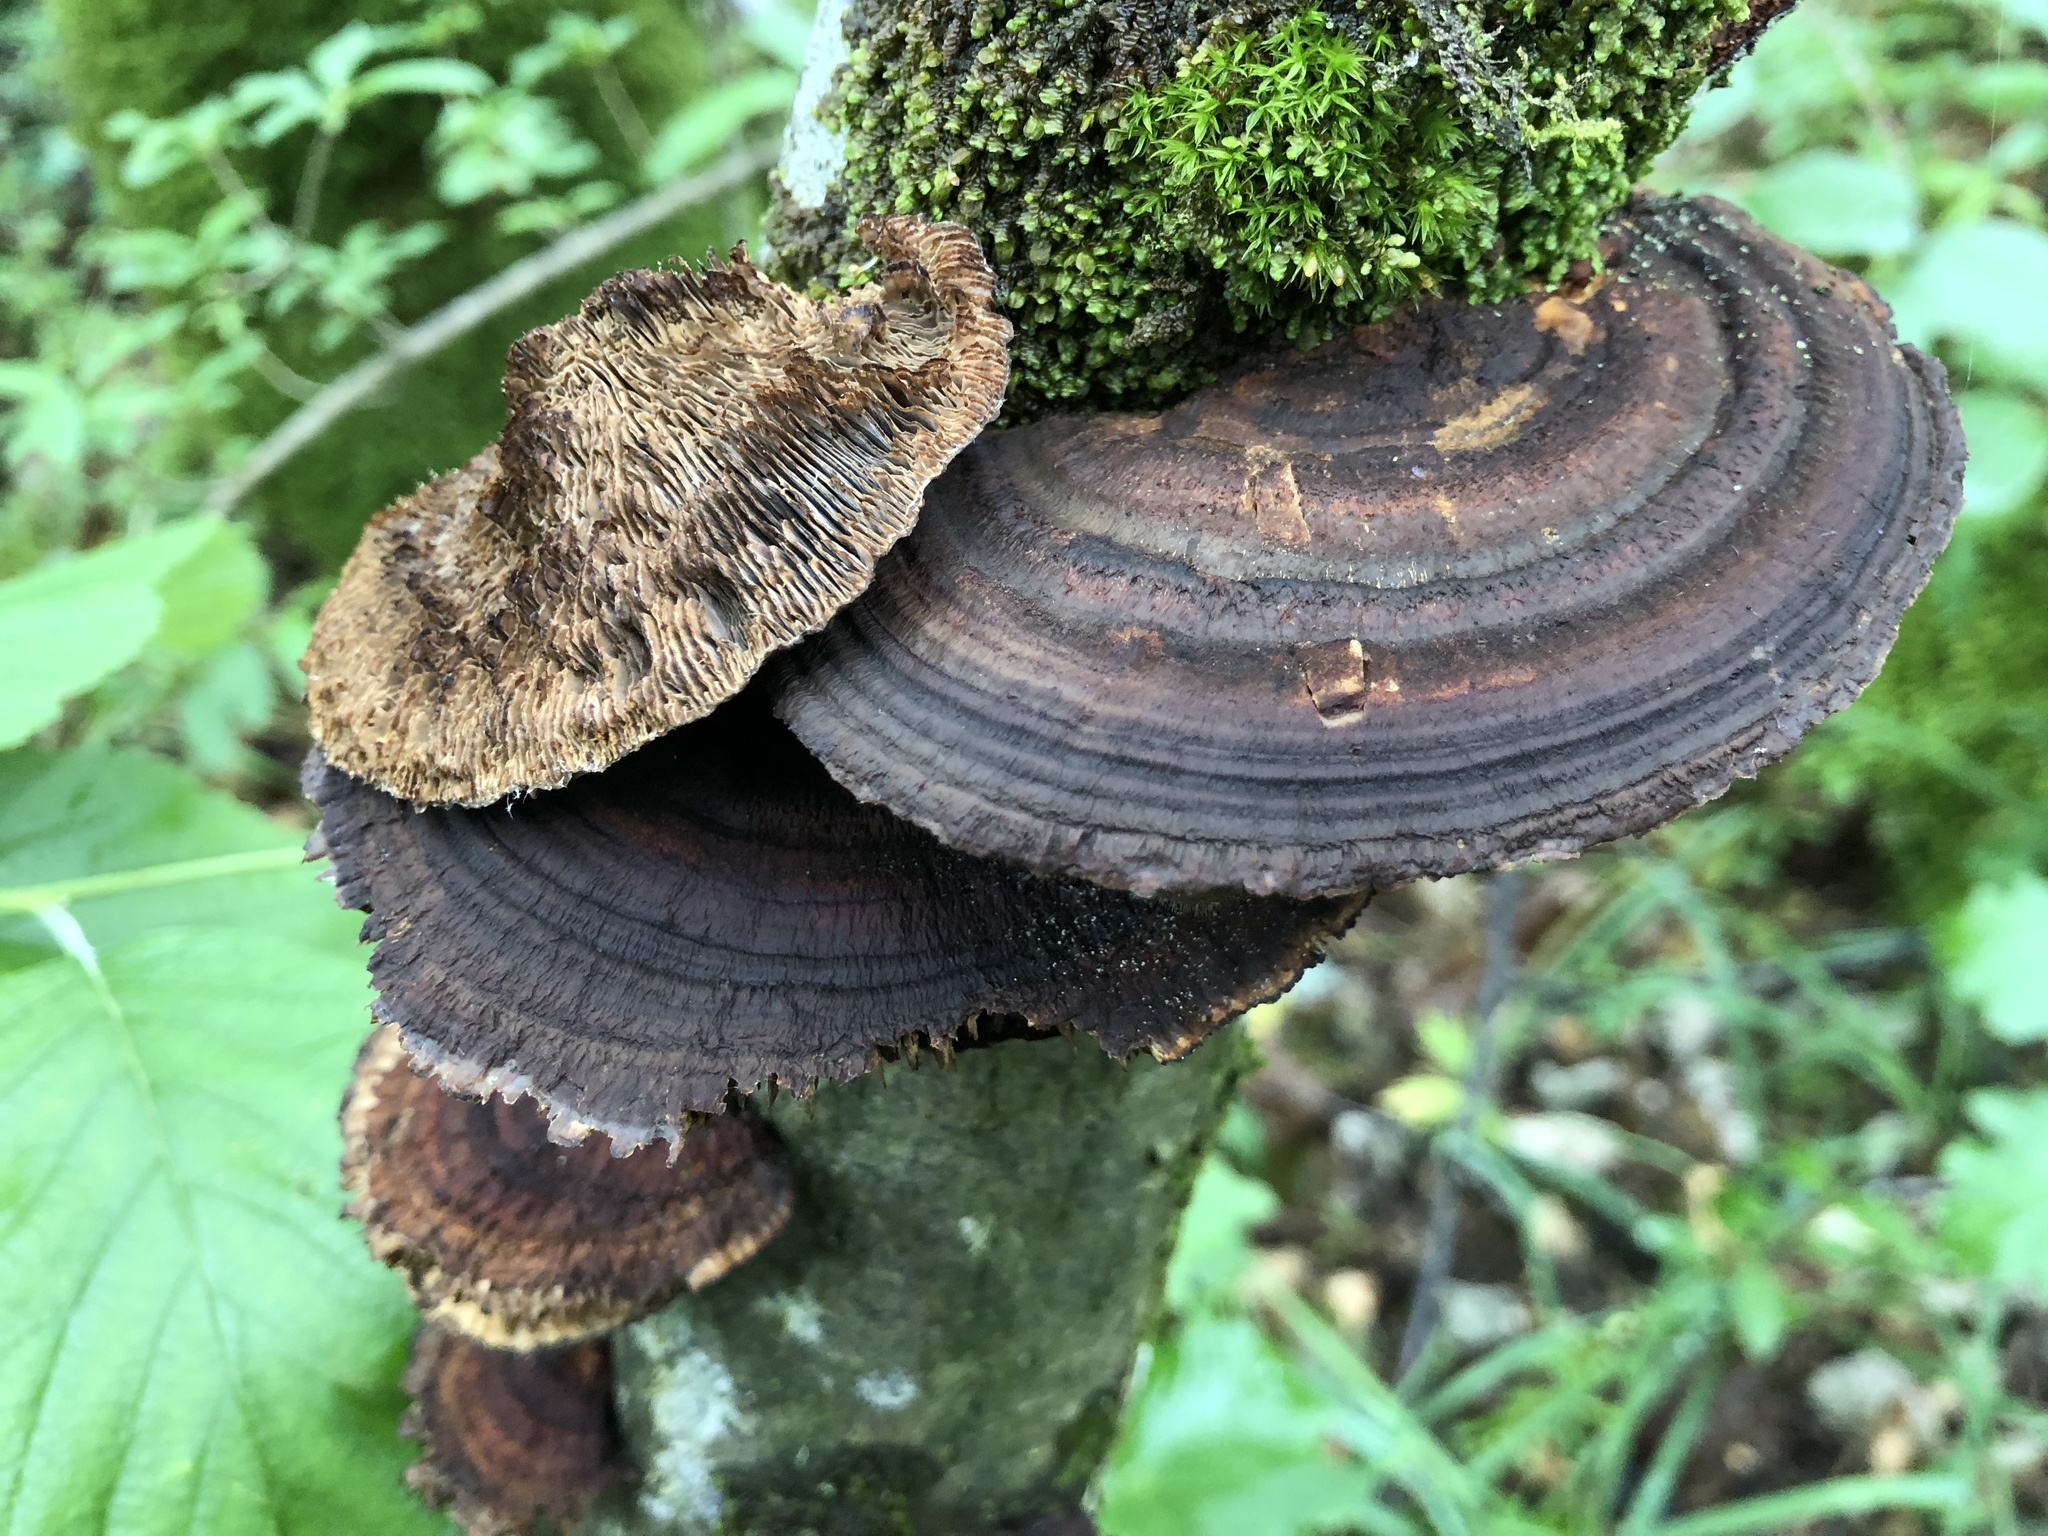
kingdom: Fungi
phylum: Basidiomycota
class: Agaricomycetes
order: Polyporales
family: Polyporaceae
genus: Daedaleopsis
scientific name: Daedaleopsis confragosa
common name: Blushing bracket
